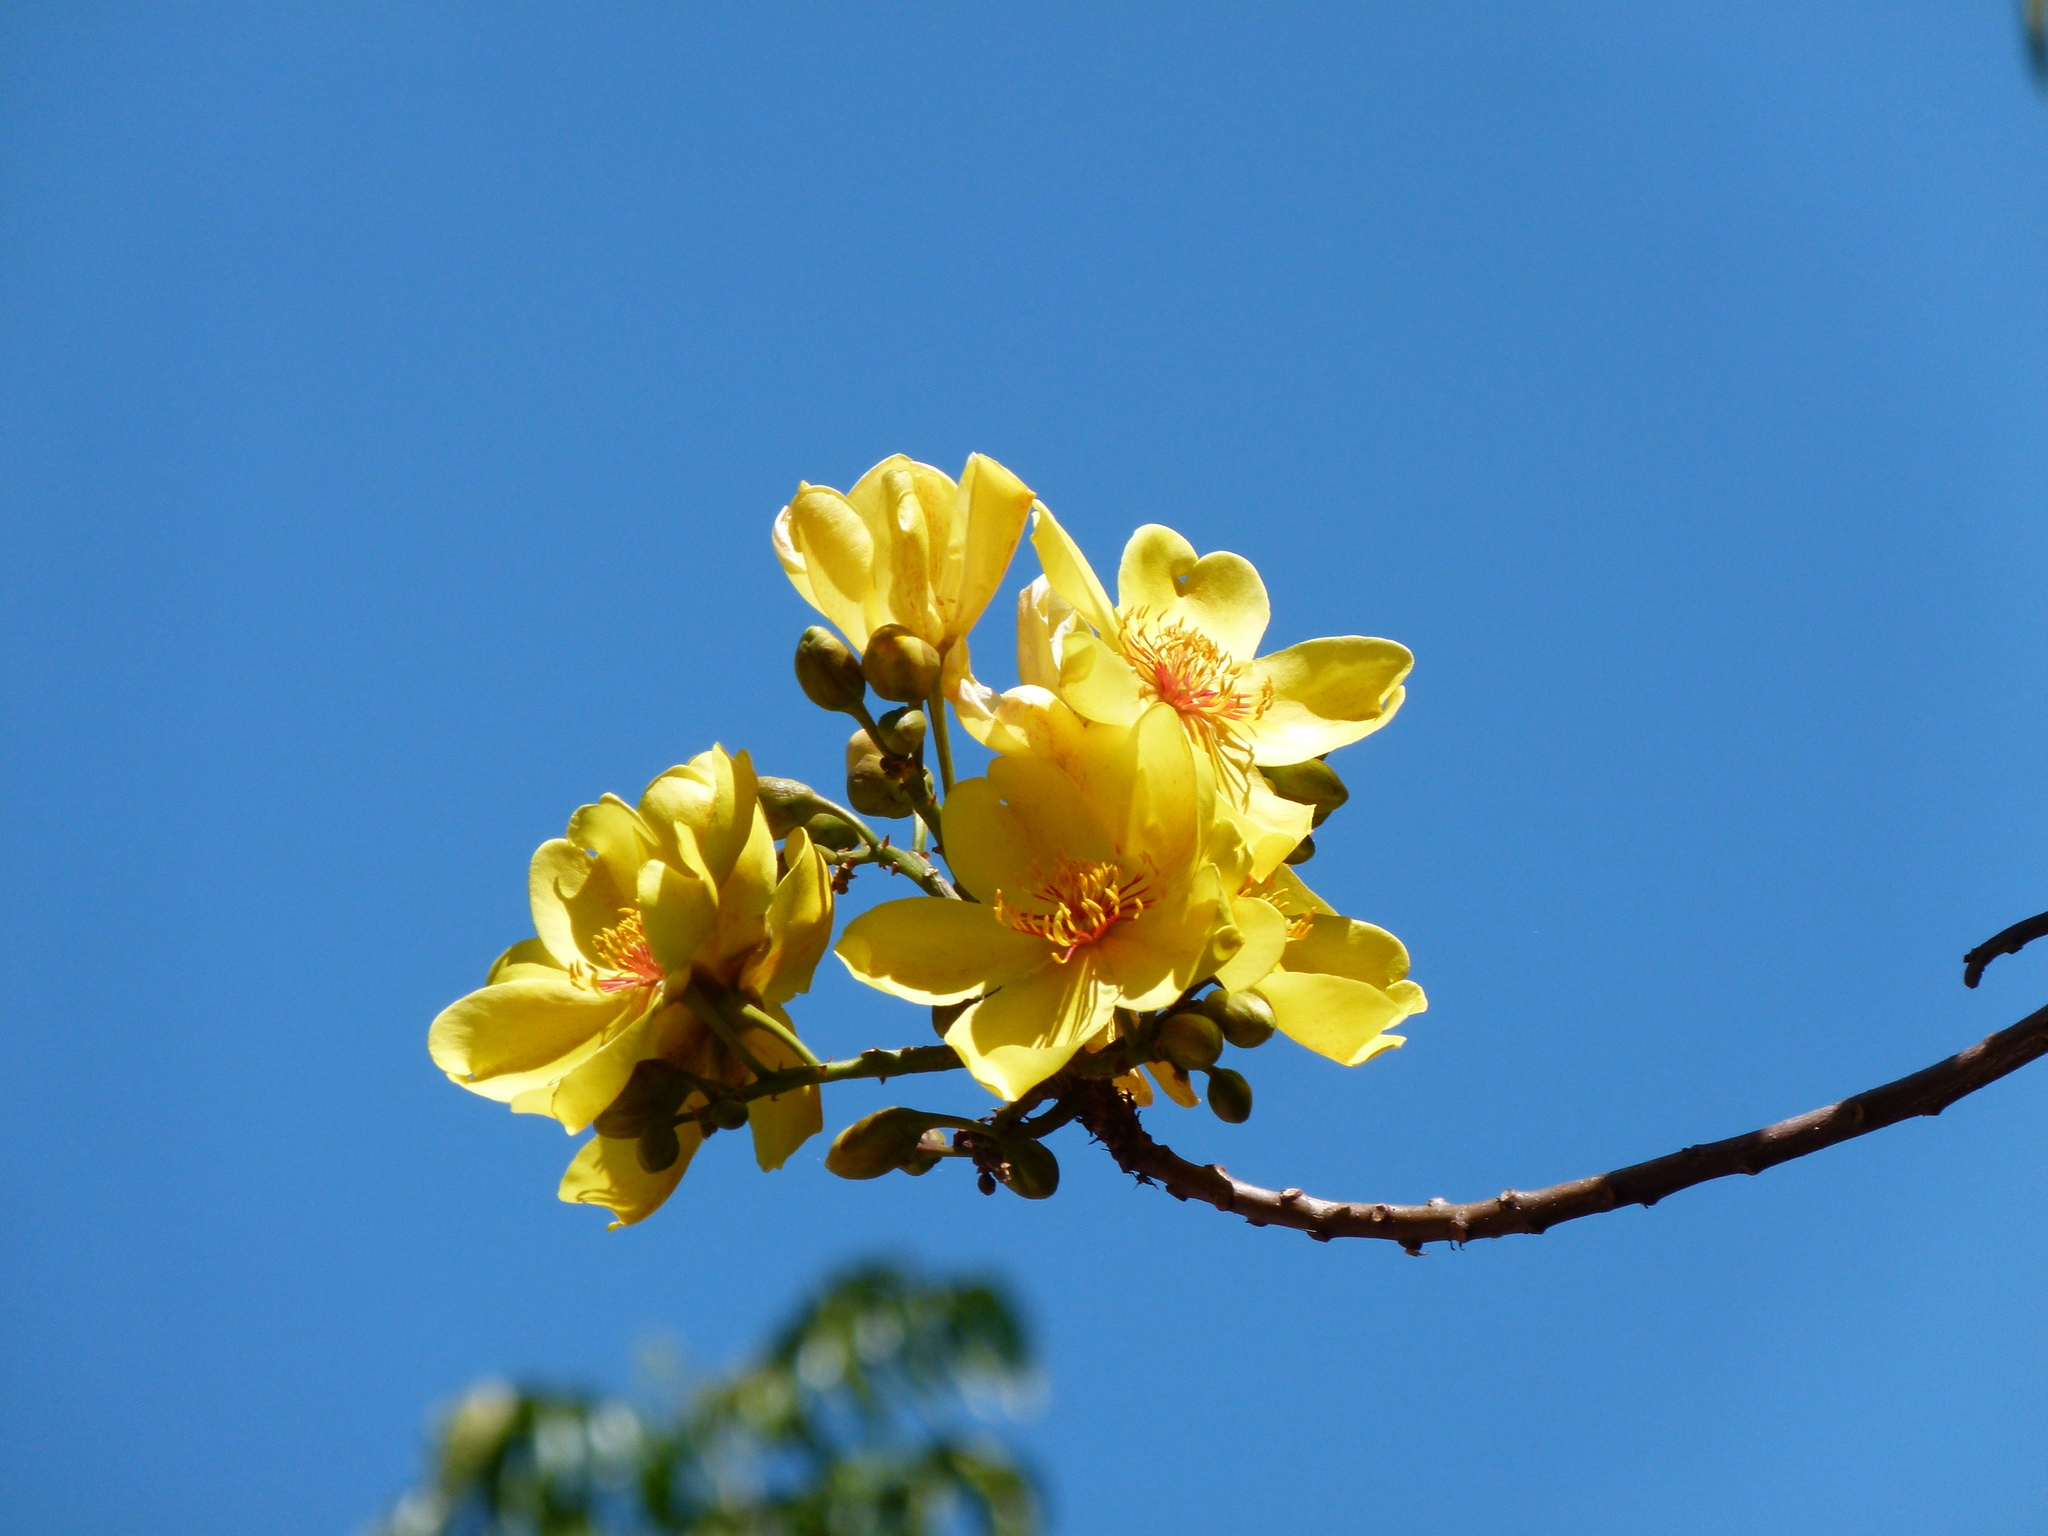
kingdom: Plantae
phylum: Tracheophyta
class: Magnoliopsida
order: Malvales
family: Cochlospermaceae
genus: Cochlospermum
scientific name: Cochlospermum gillivraei
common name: Cottontree
